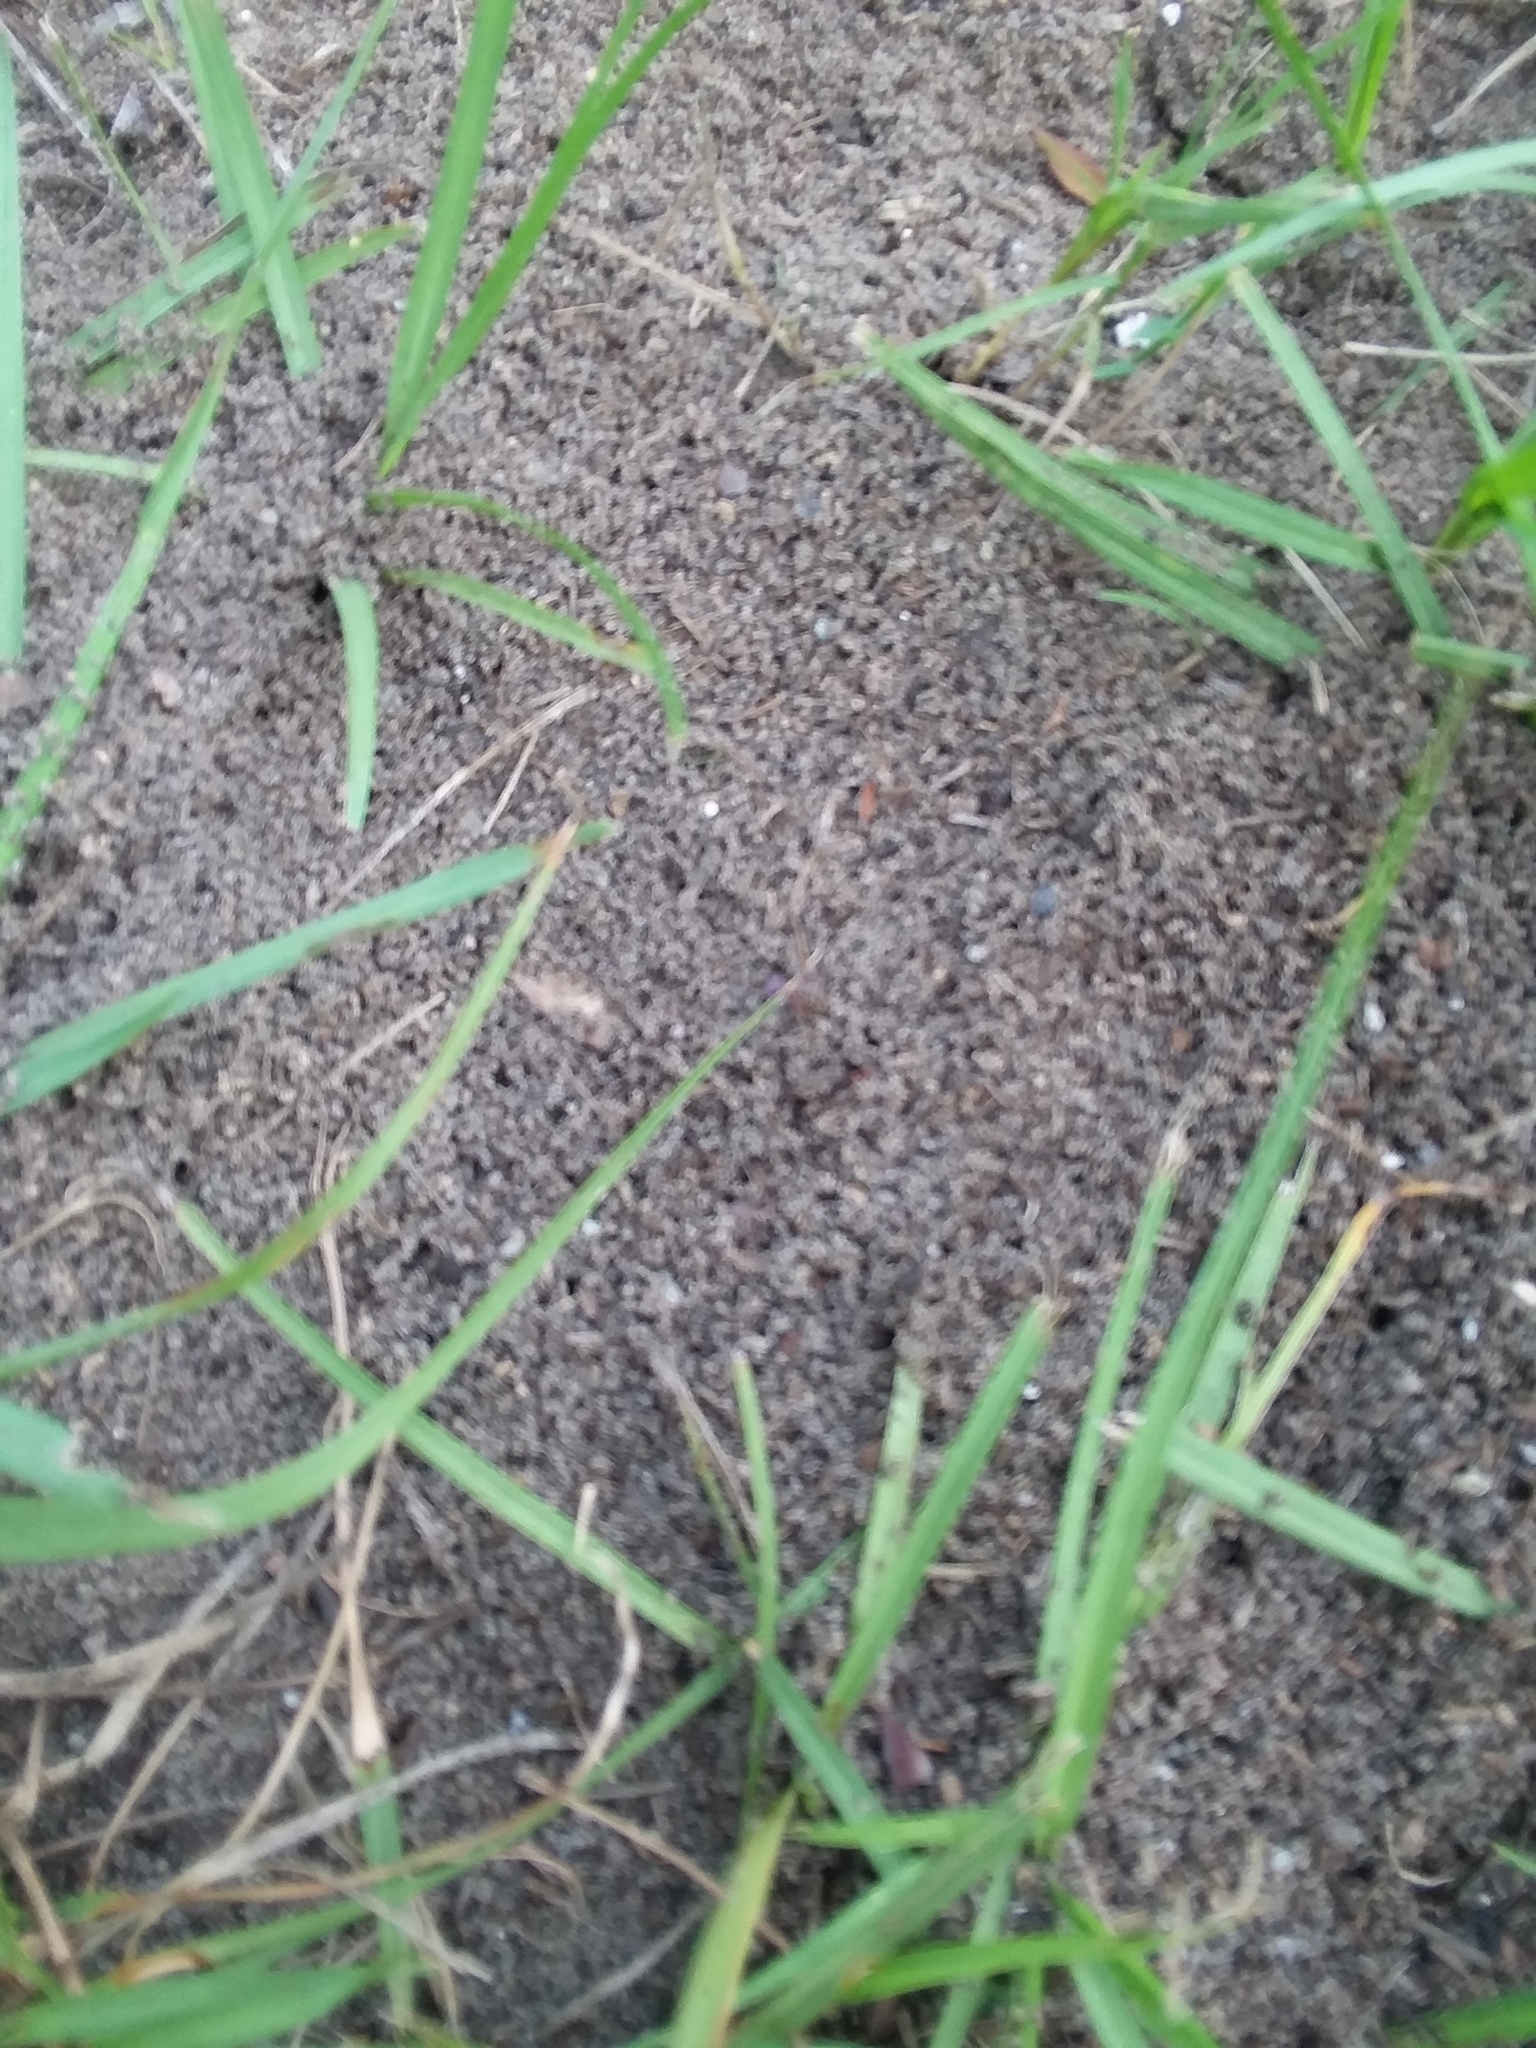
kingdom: Animalia
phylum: Arthropoda
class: Insecta
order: Hymenoptera
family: Formicidae
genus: Solenopsis
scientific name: Solenopsis invicta
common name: Red imported fire ant
